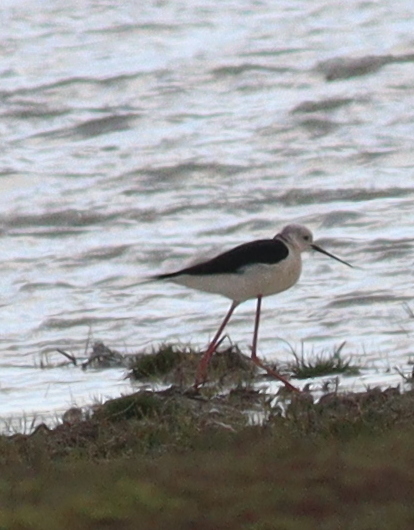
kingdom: Animalia
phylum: Chordata
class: Aves
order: Charadriiformes
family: Recurvirostridae
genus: Himantopus
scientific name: Himantopus himantopus
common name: Black-winged stilt
